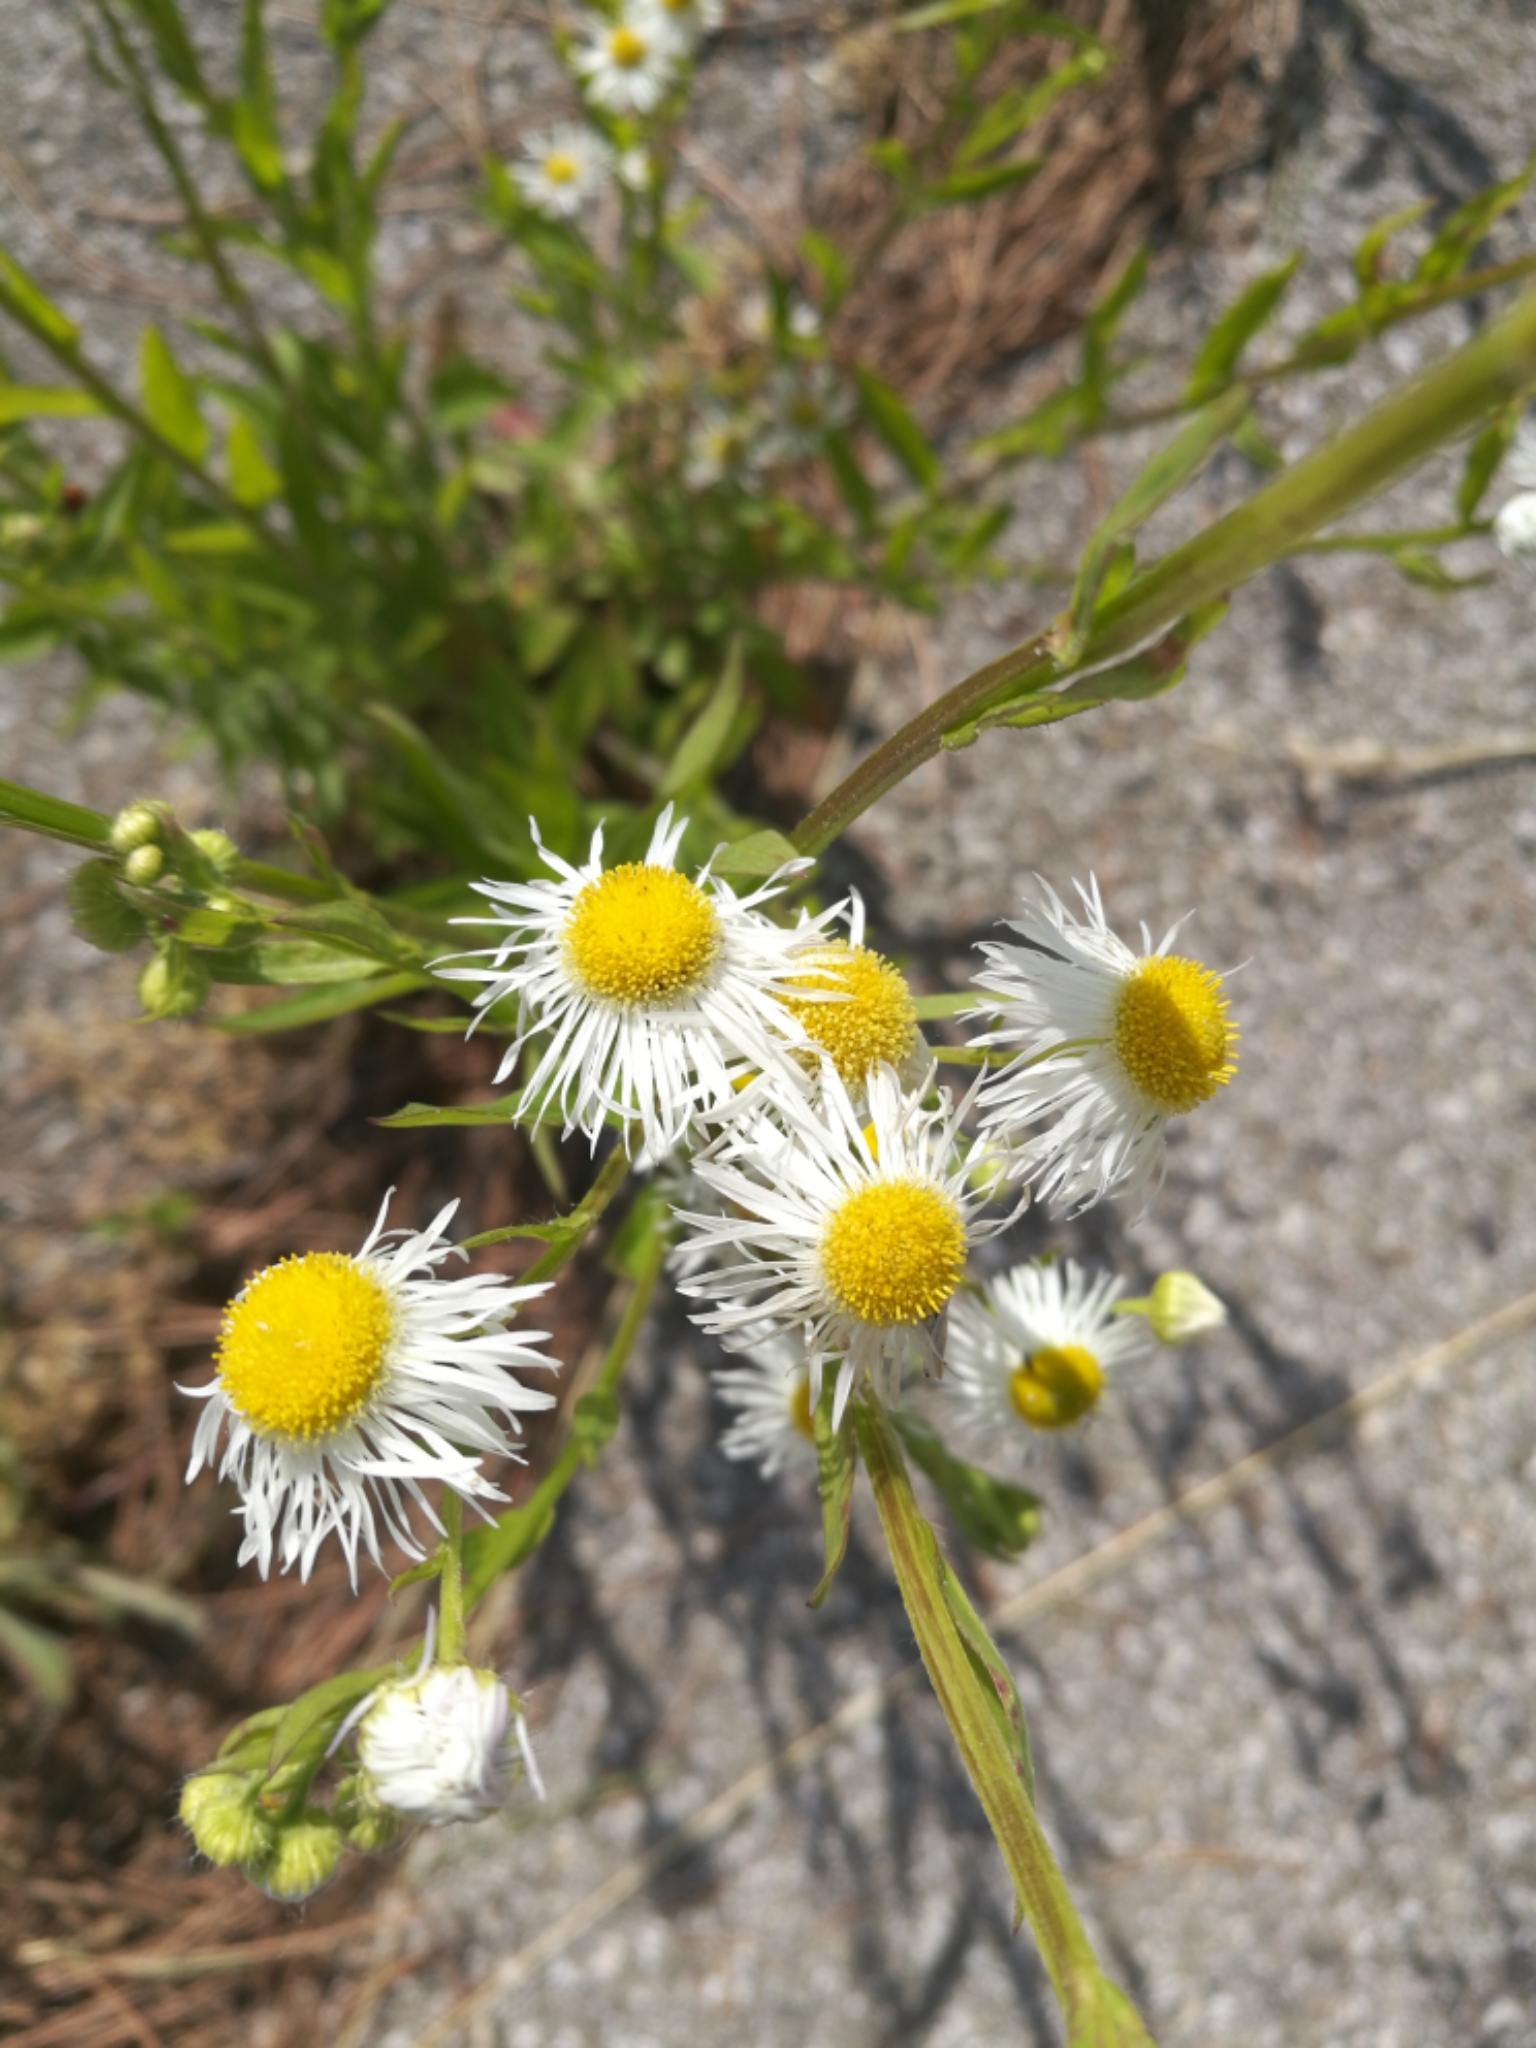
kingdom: Plantae
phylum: Tracheophyta
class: Magnoliopsida
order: Asterales
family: Asteraceae
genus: Erigeron
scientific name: Erigeron annuus
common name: Tall fleabane
